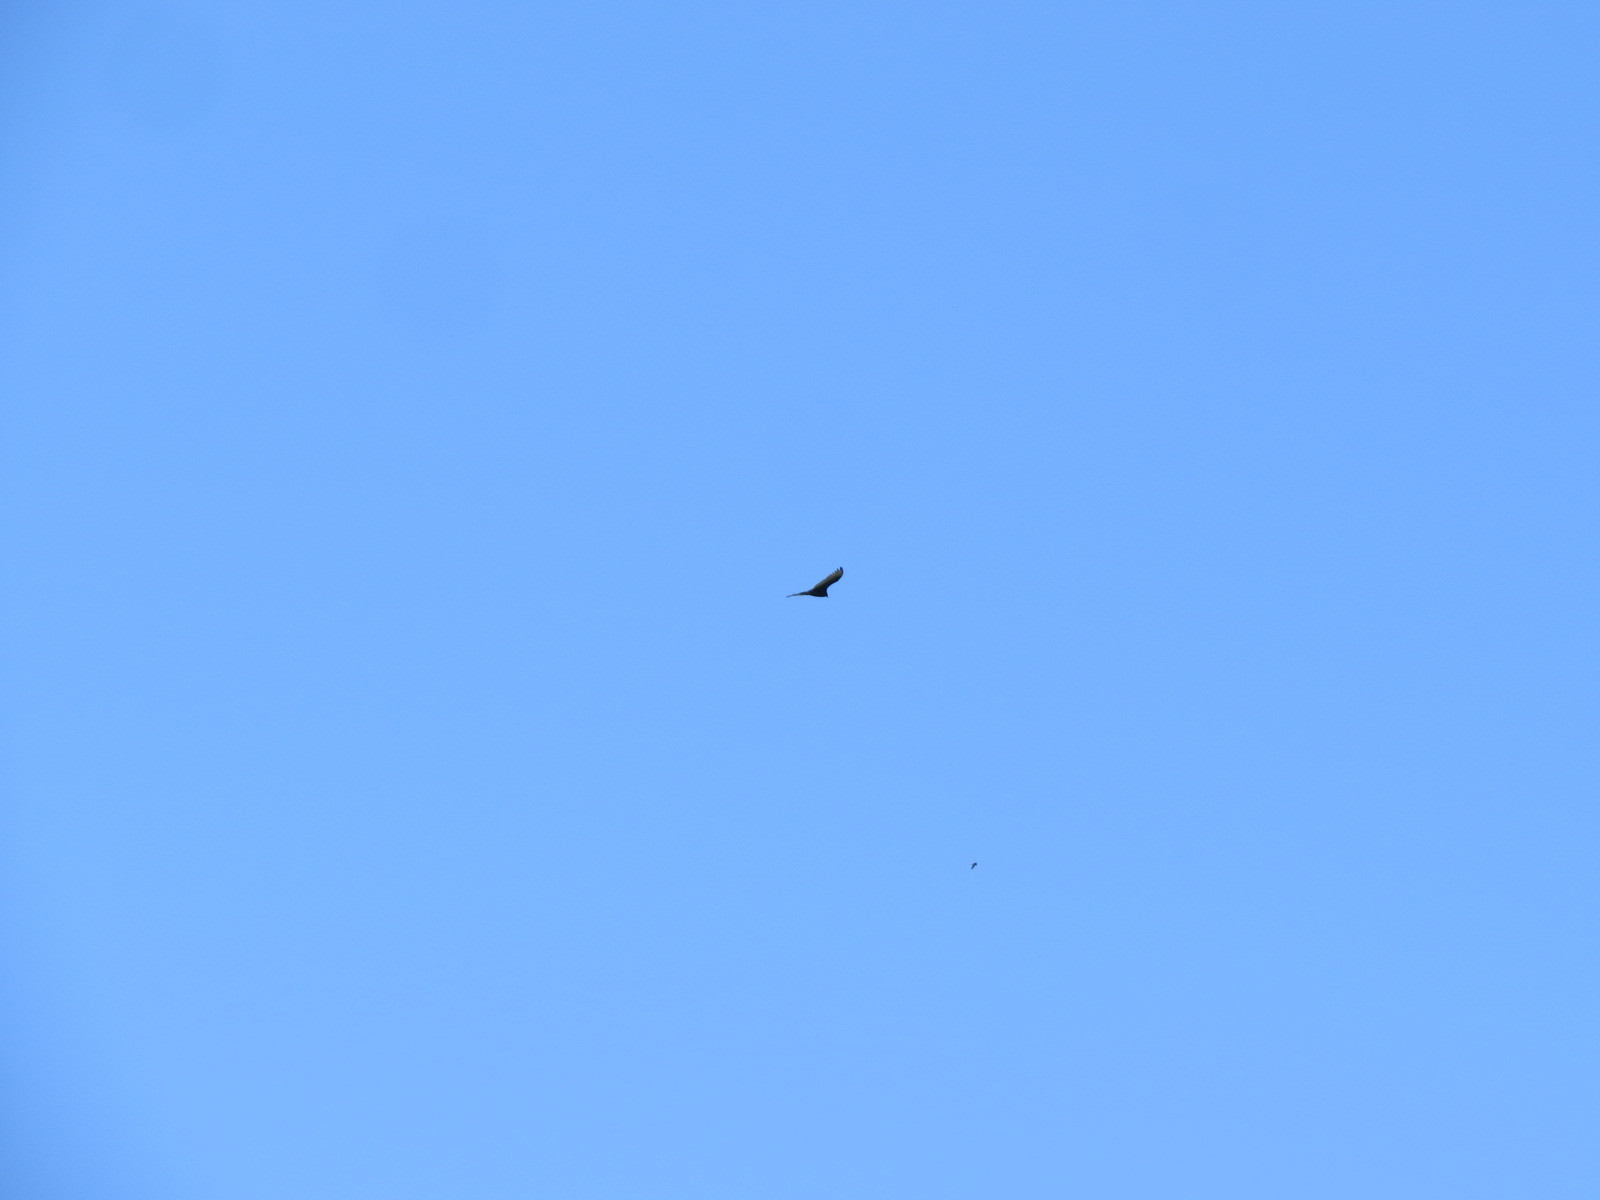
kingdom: Animalia
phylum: Chordata
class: Aves
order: Accipitriformes
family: Cathartidae
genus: Cathartes
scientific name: Cathartes aura
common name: Turkey vulture
